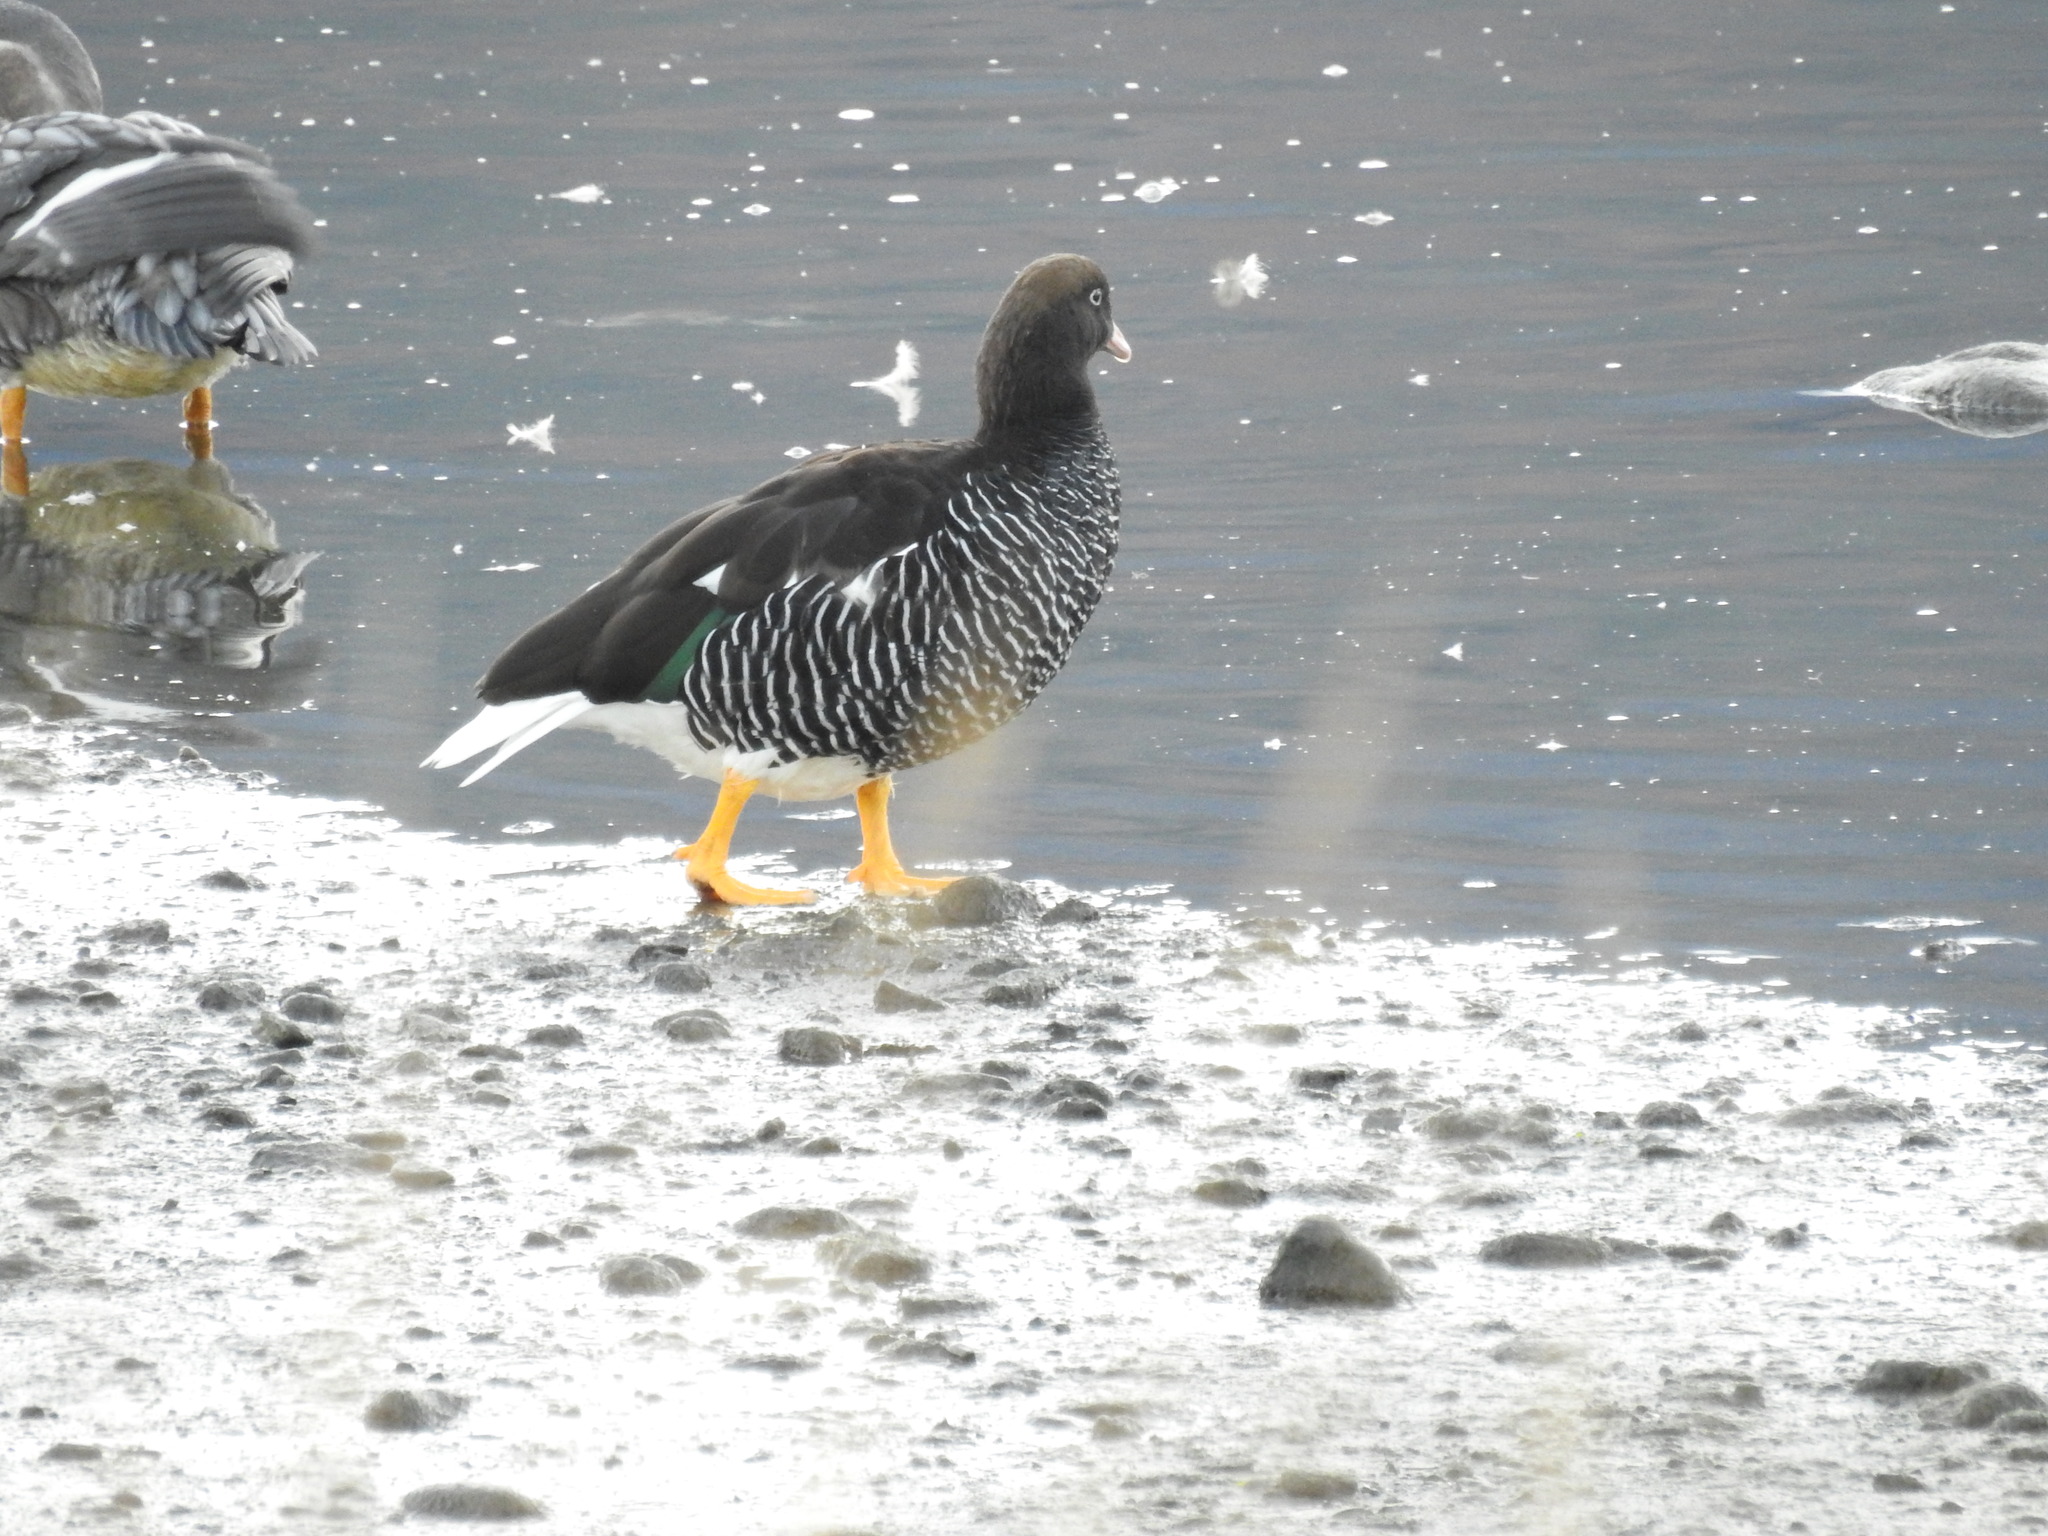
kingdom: Animalia
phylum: Chordata
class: Aves
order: Anseriformes
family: Anatidae
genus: Chloephaga
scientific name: Chloephaga hybrida
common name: Kelp goose
